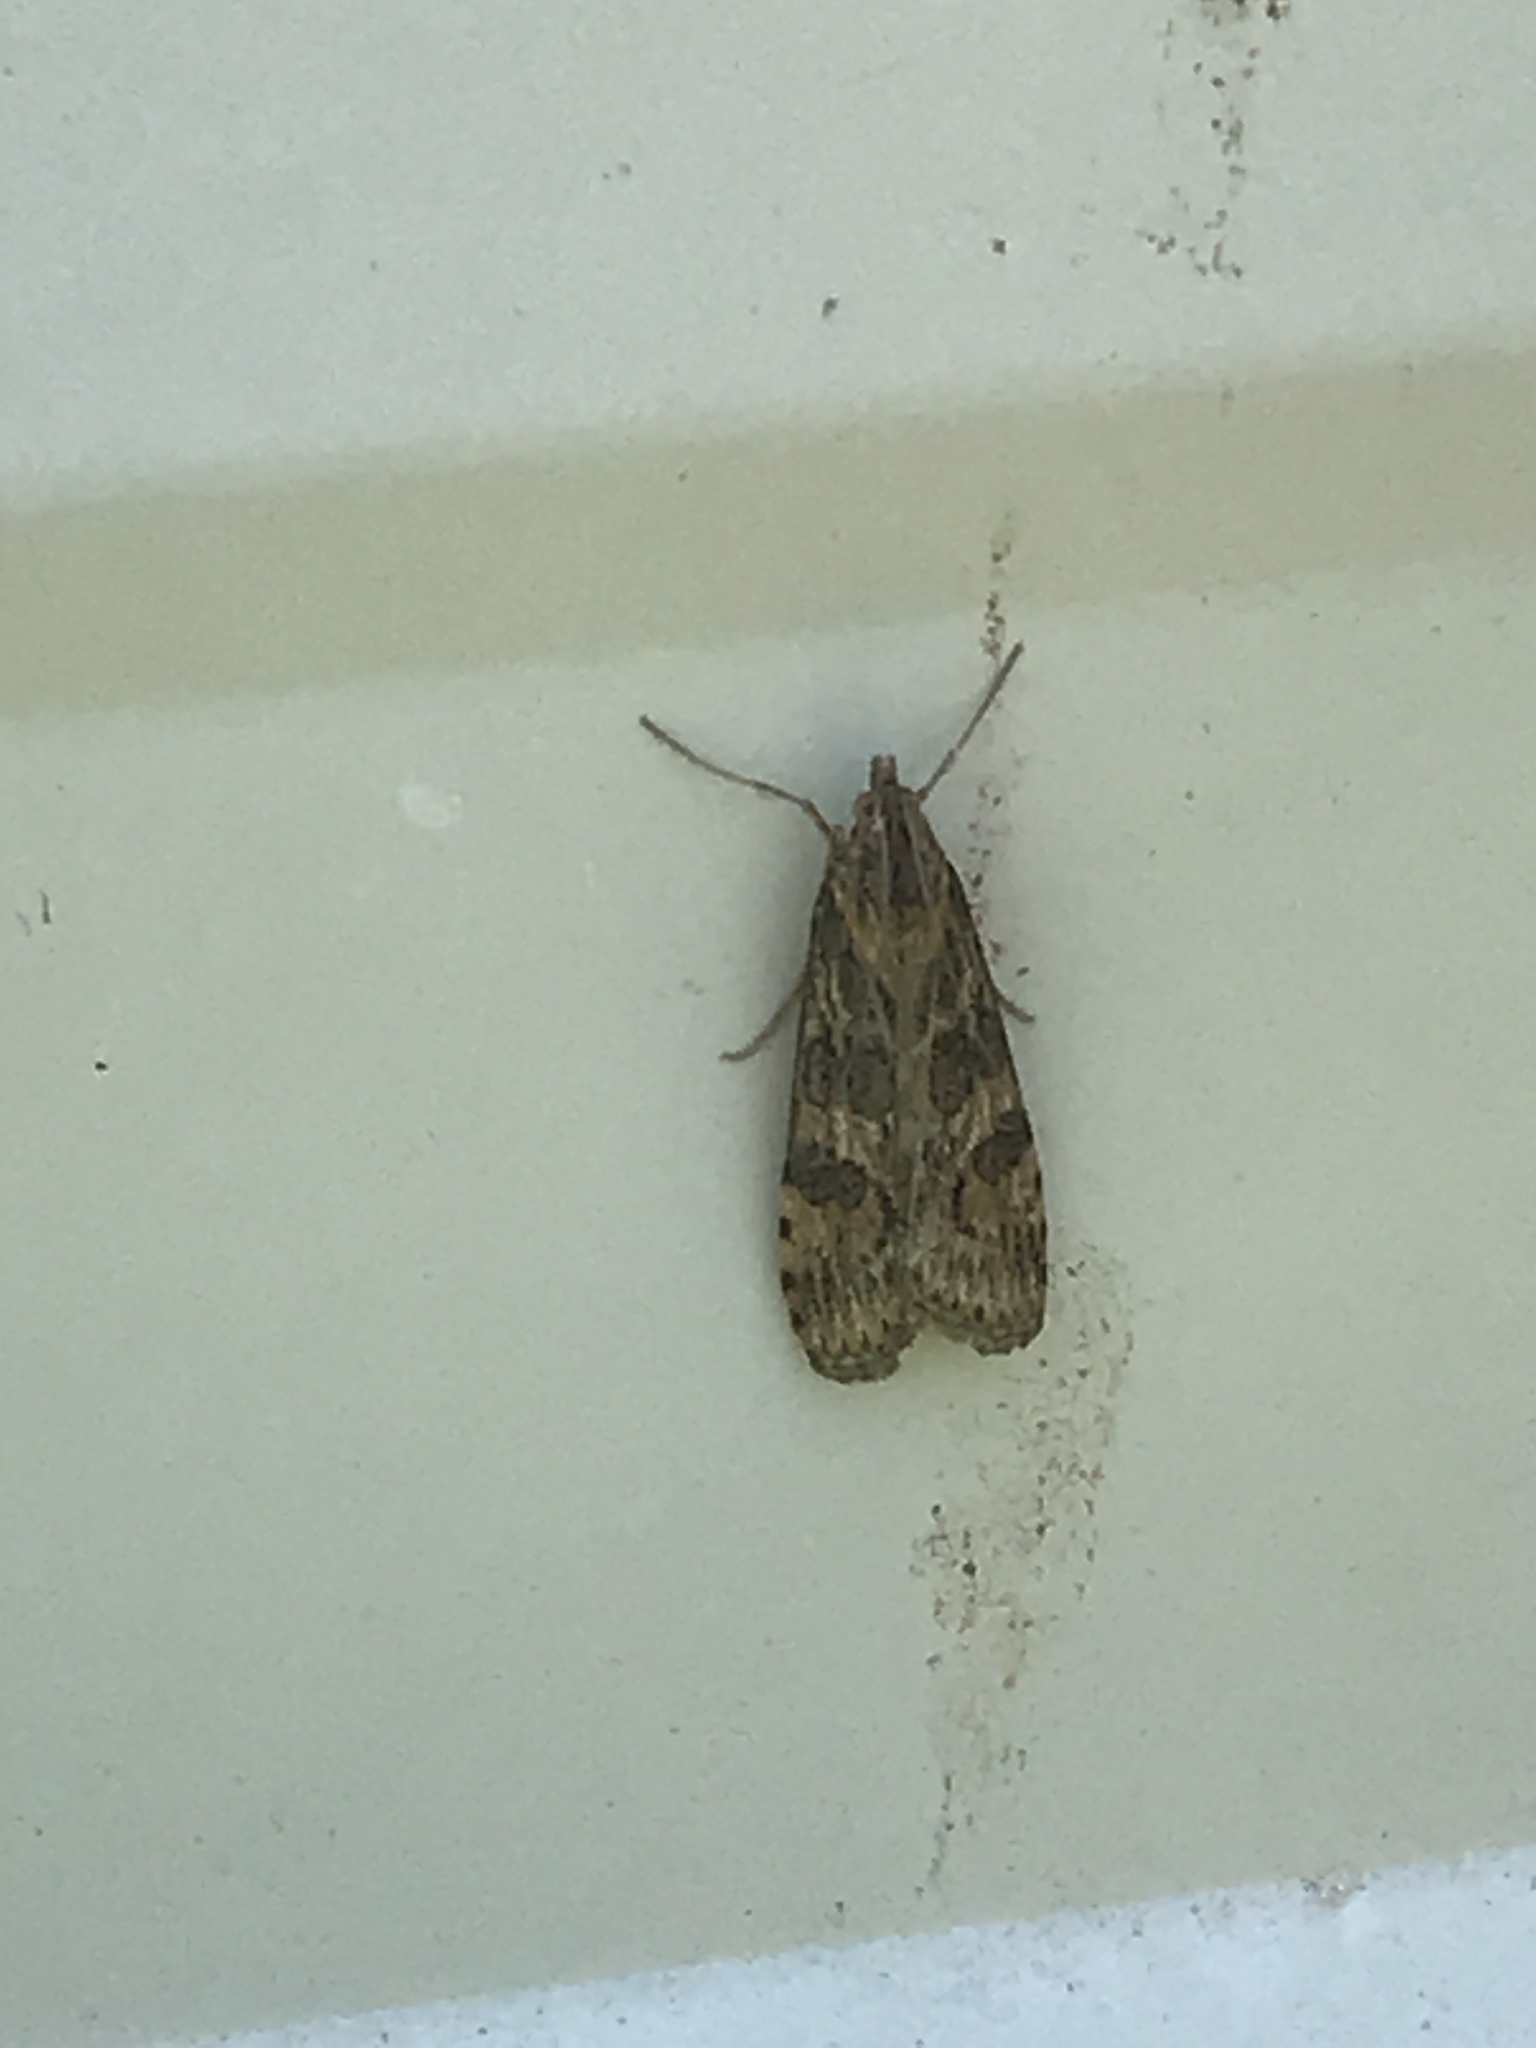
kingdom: Animalia
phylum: Arthropoda
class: Insecta
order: Lepidoptera
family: Crambidae
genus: Nomophila
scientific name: Nomophila nearctica
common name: American rush veneer
